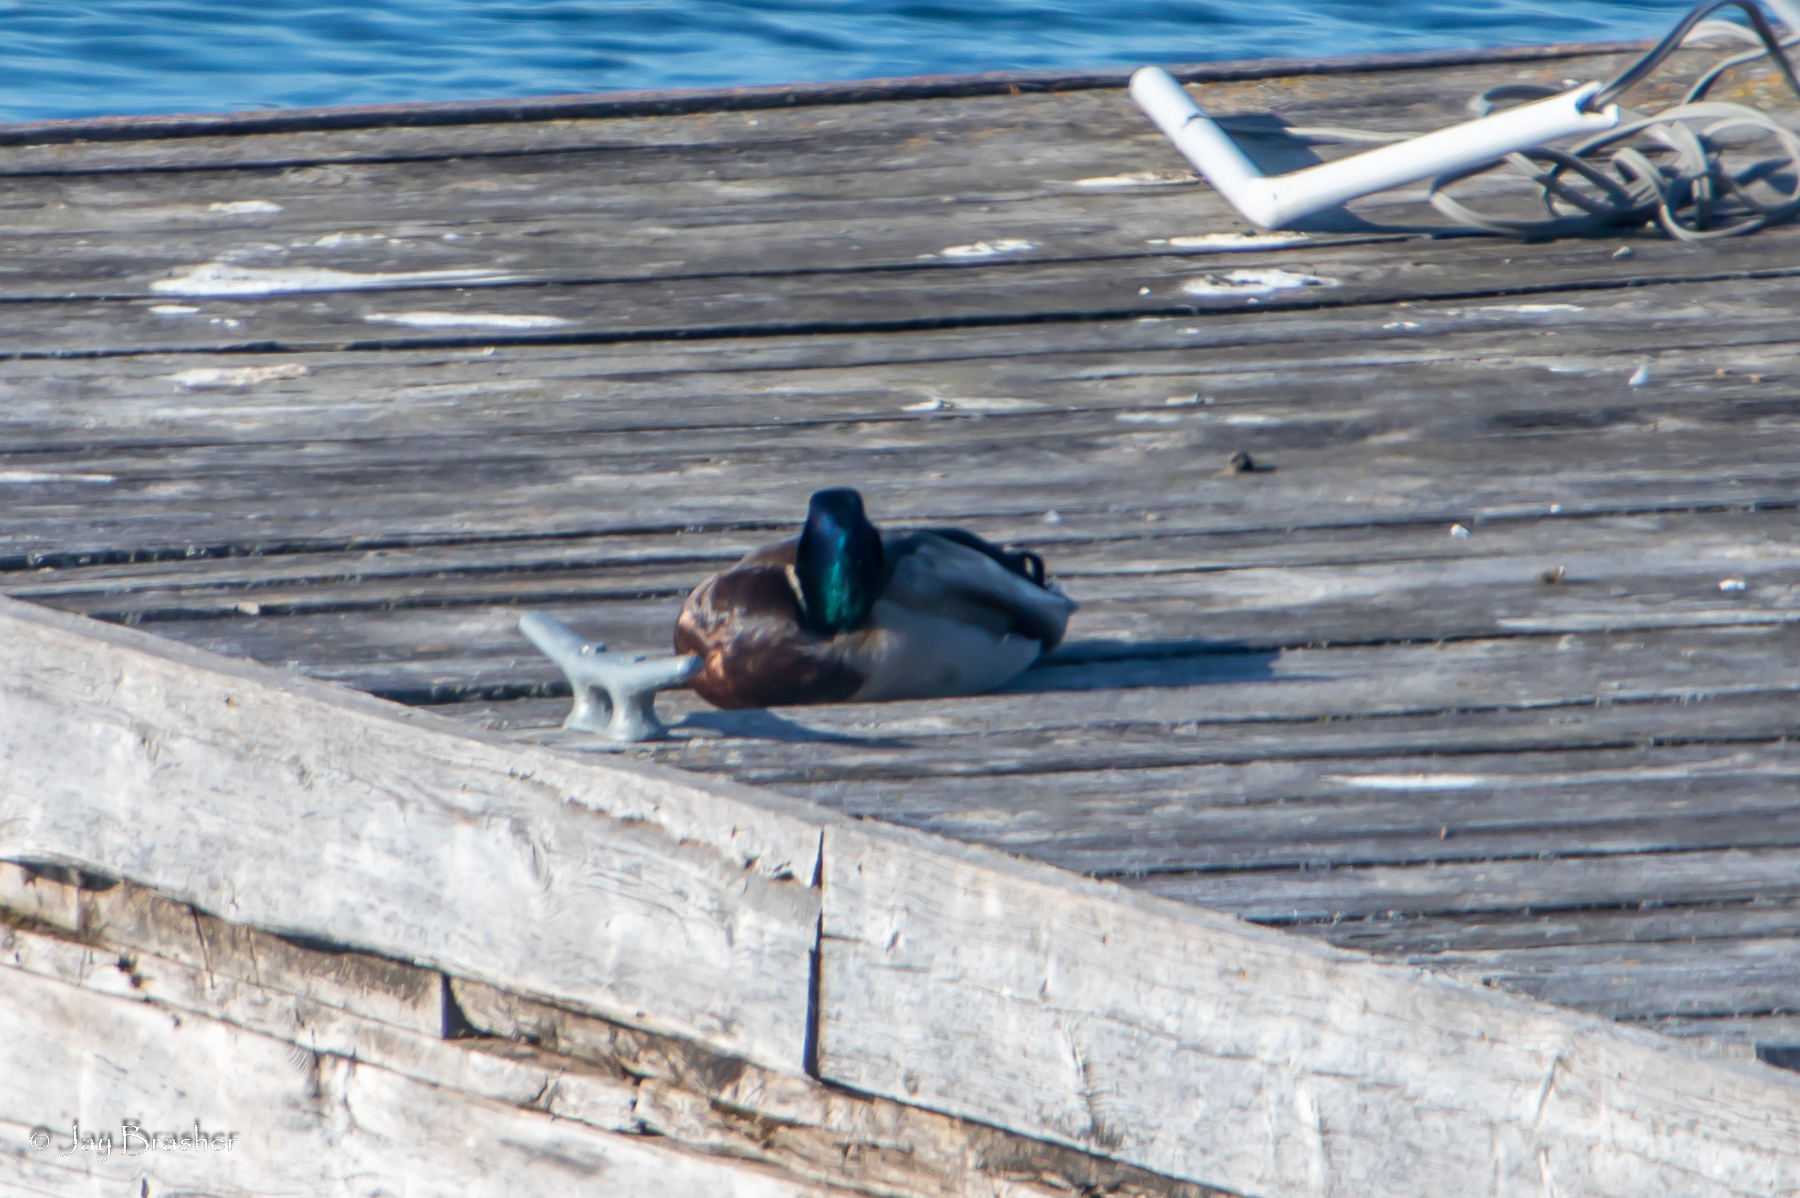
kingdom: Animalia
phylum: Chordata
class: Aves
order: Anseriformes
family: Anatidae
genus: Anas
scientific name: Anas platyrhynchos
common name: Mallard
